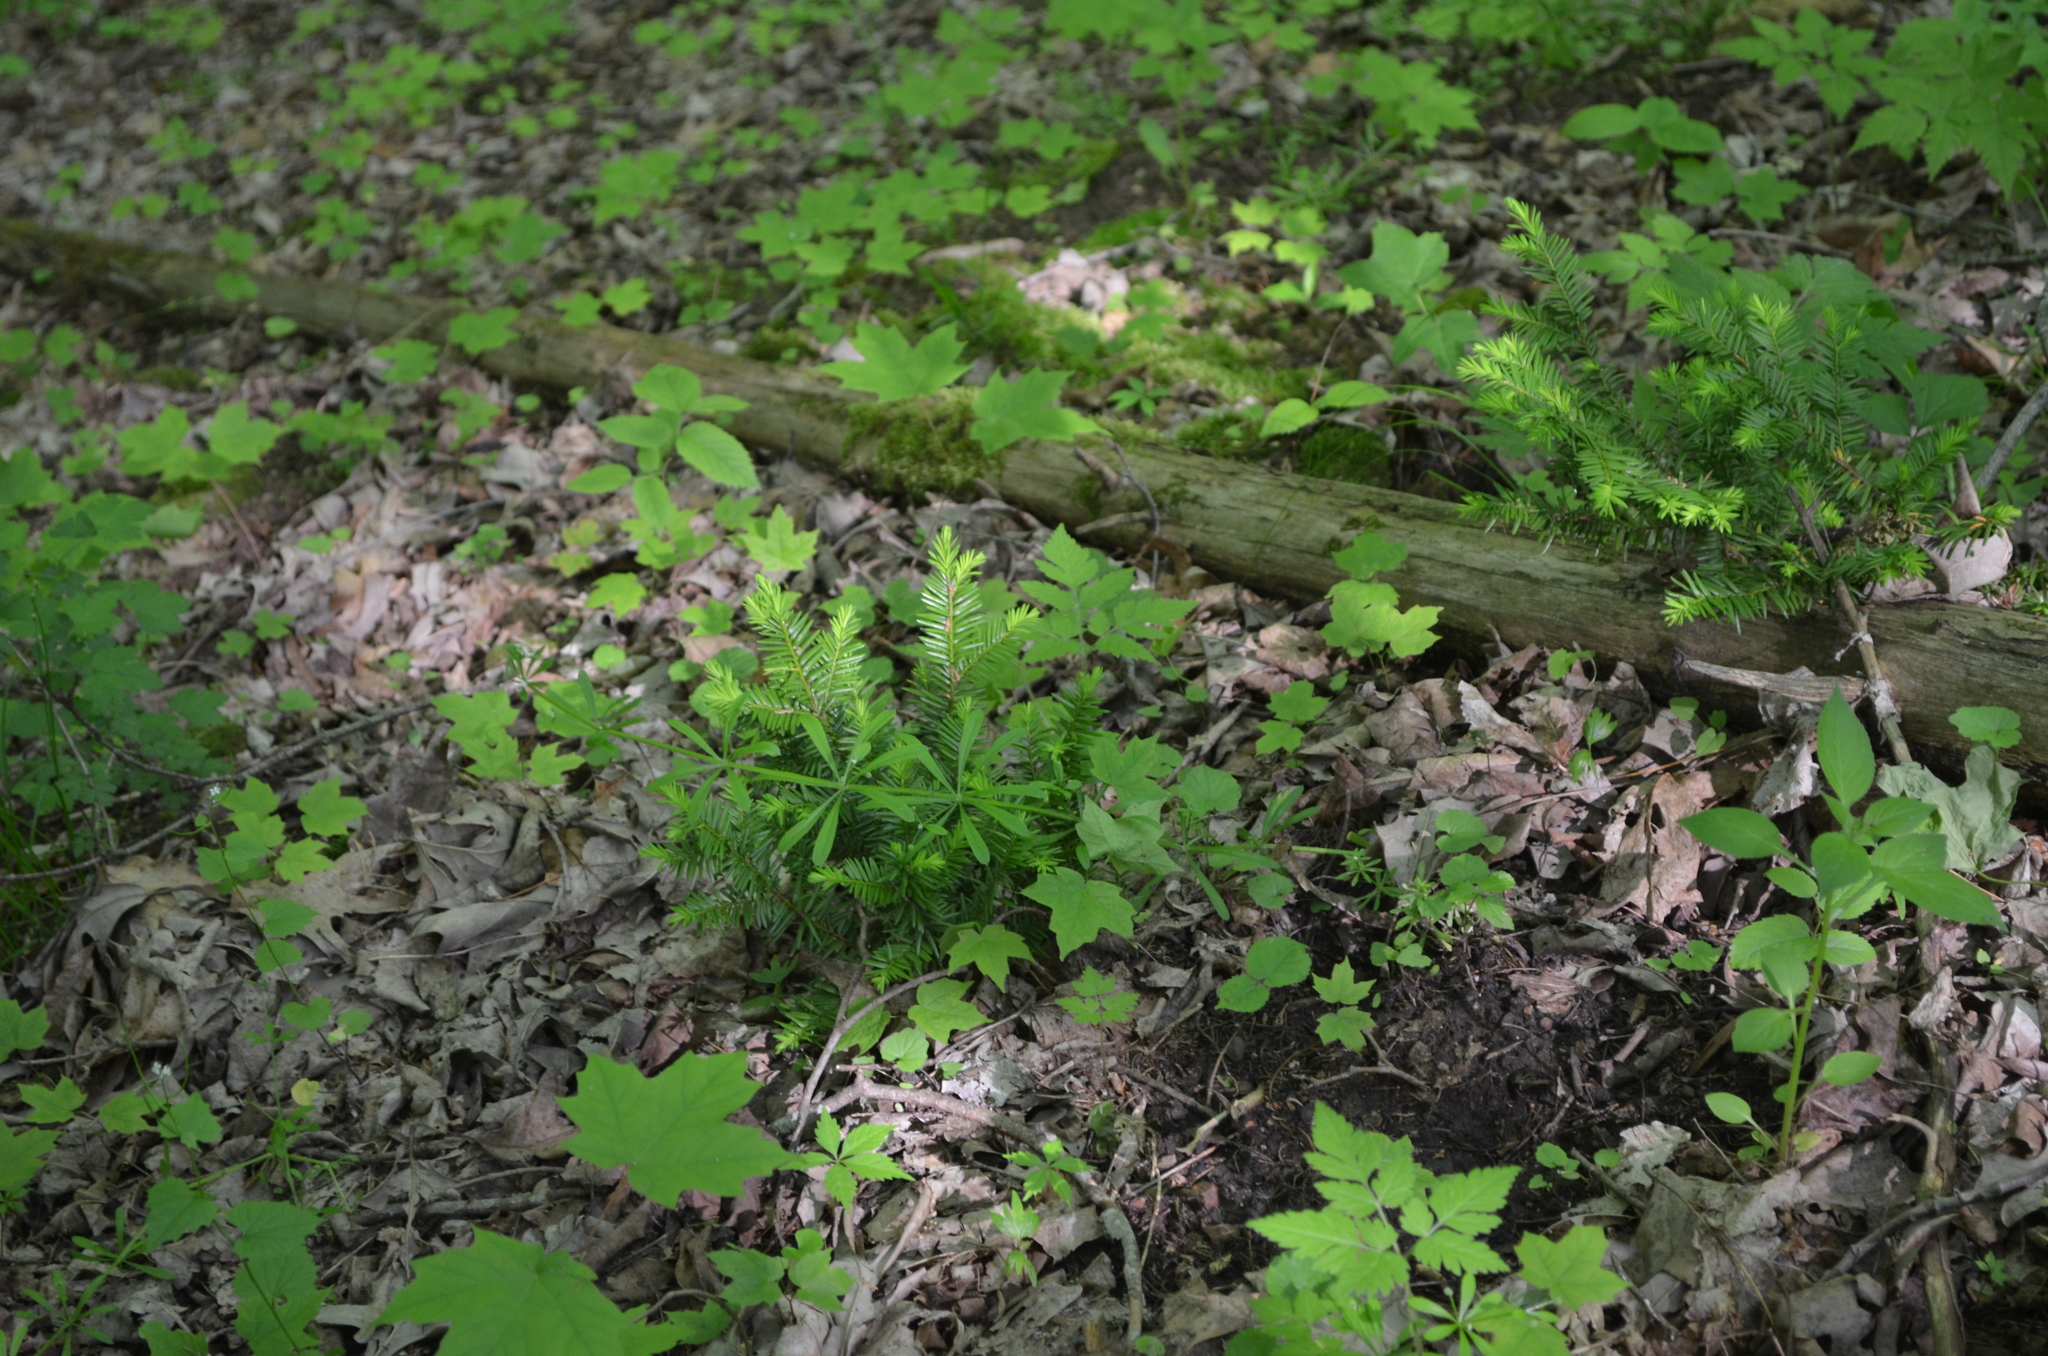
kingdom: Plantae
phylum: Tracheophyta
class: Pinopsida
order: Pinales
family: Taxaceae
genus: Taxus
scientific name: Taxus canadensis
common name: American yew
